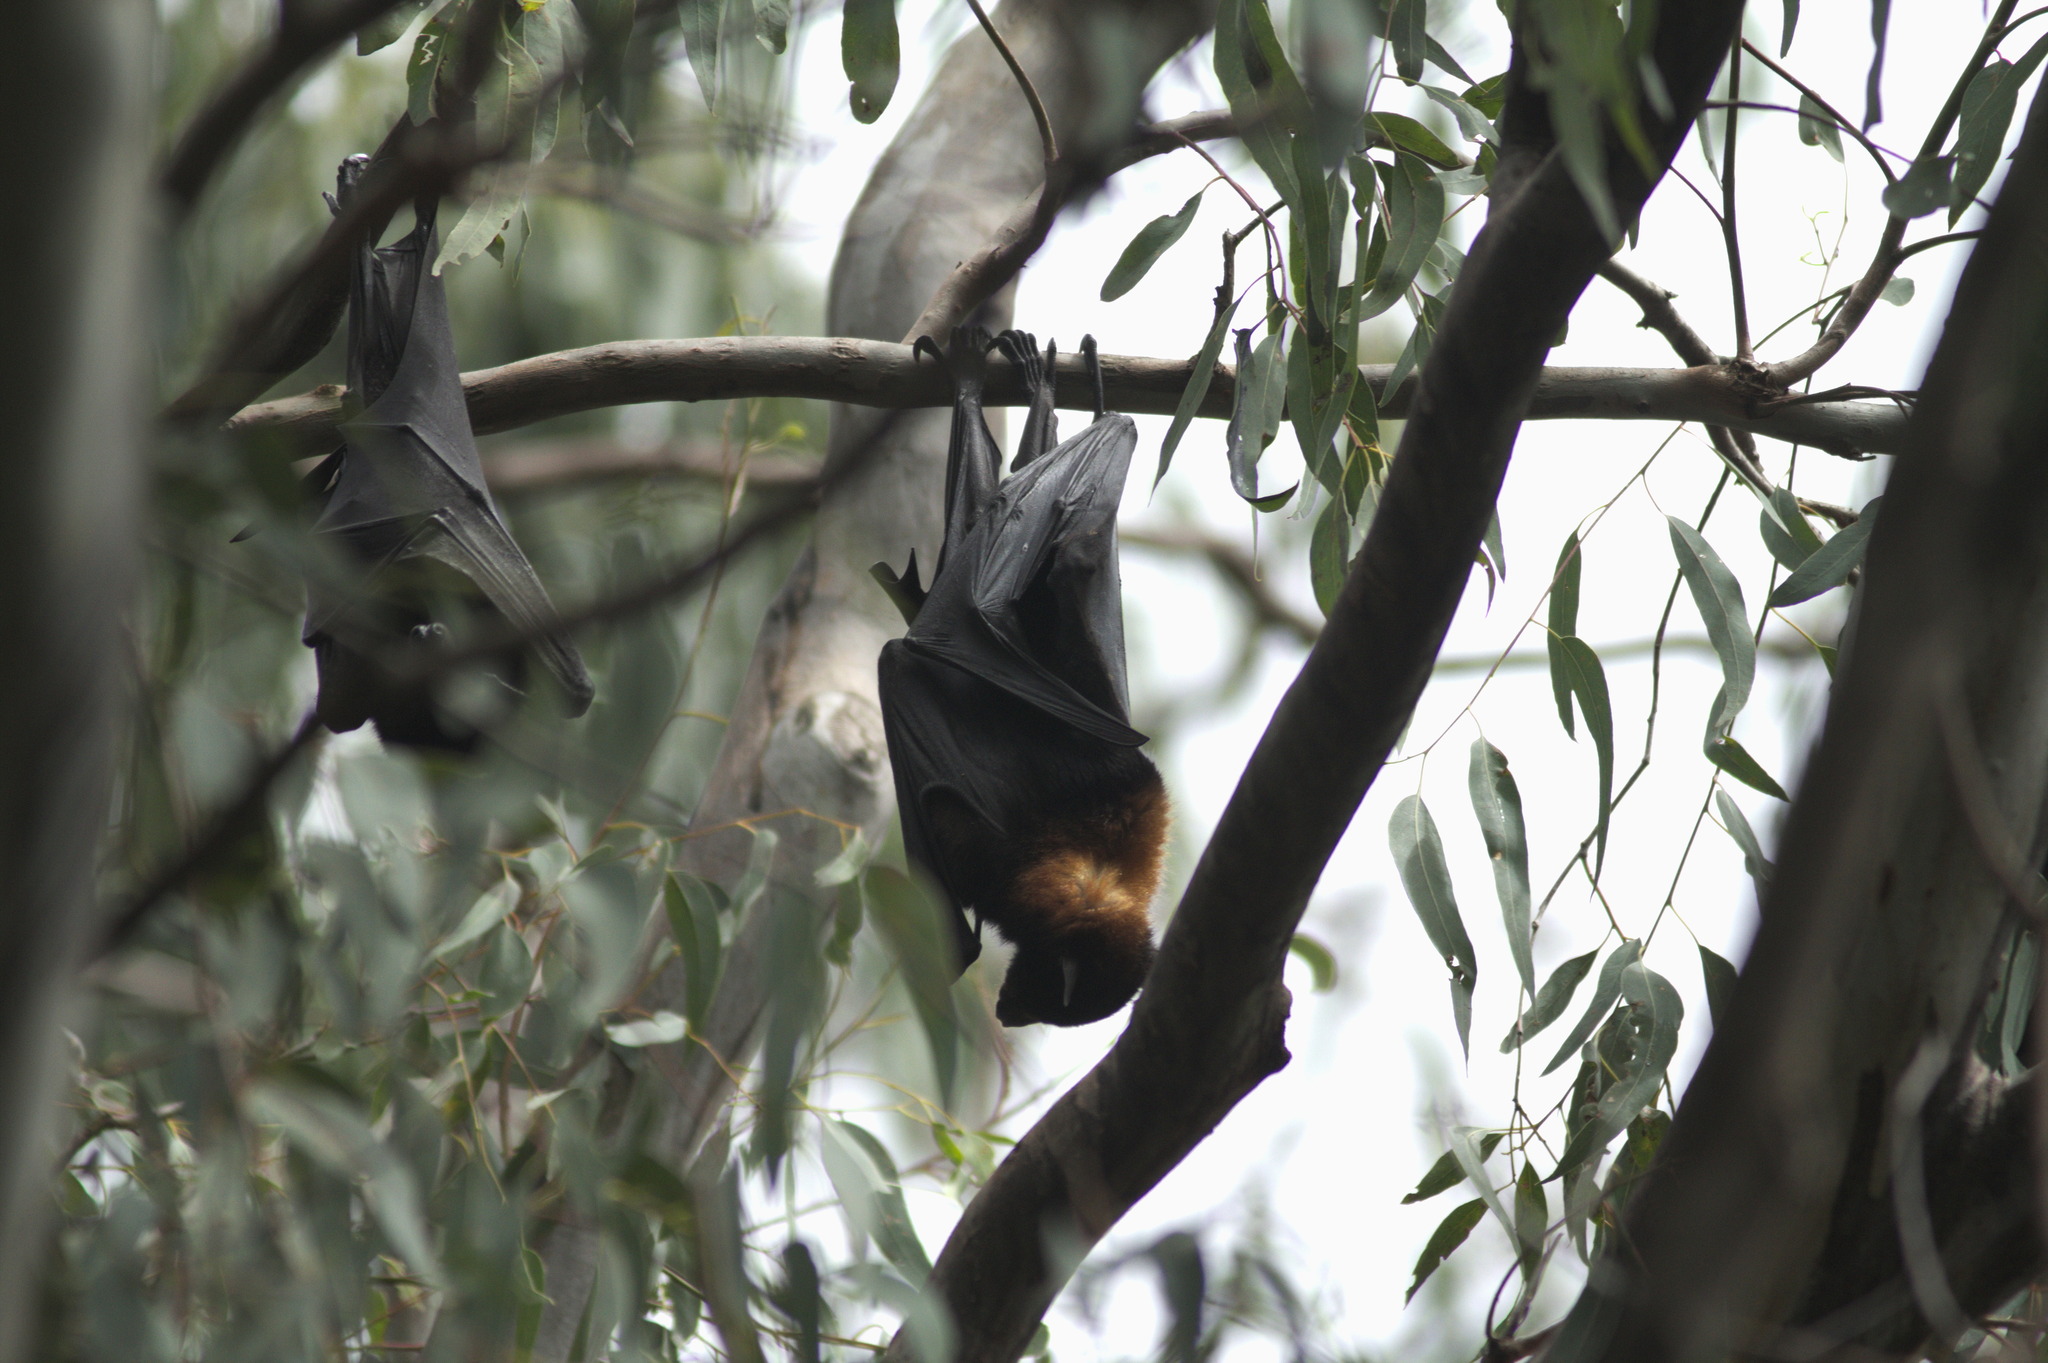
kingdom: Animalia
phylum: Chordata
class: Mammalia
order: Chiroptera
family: Pteropodidae
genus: Pteropus
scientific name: Pteropus alecto
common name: Black flying fox
